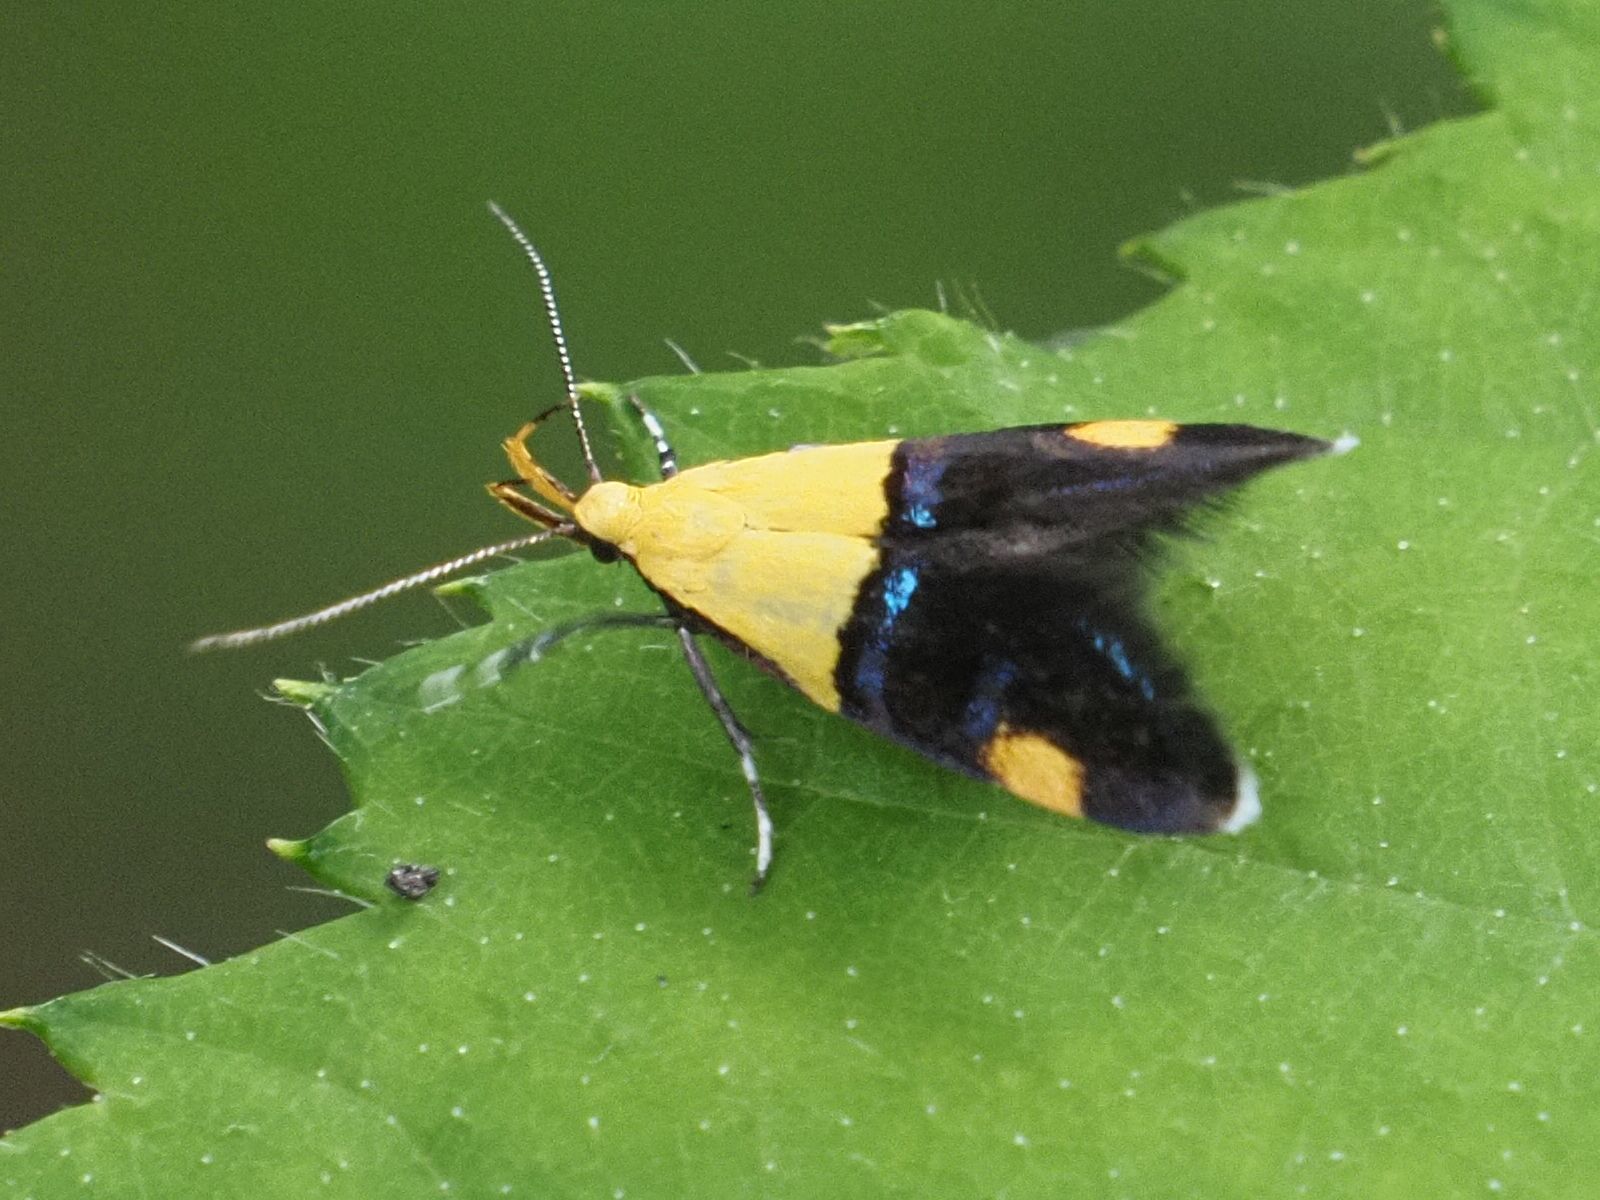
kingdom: Animalia
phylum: Arthropoda
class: Insecta
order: Lepidoptera
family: Oecophoridae
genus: Oecophora
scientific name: Oecophora bractella
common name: Gold-base tubic
